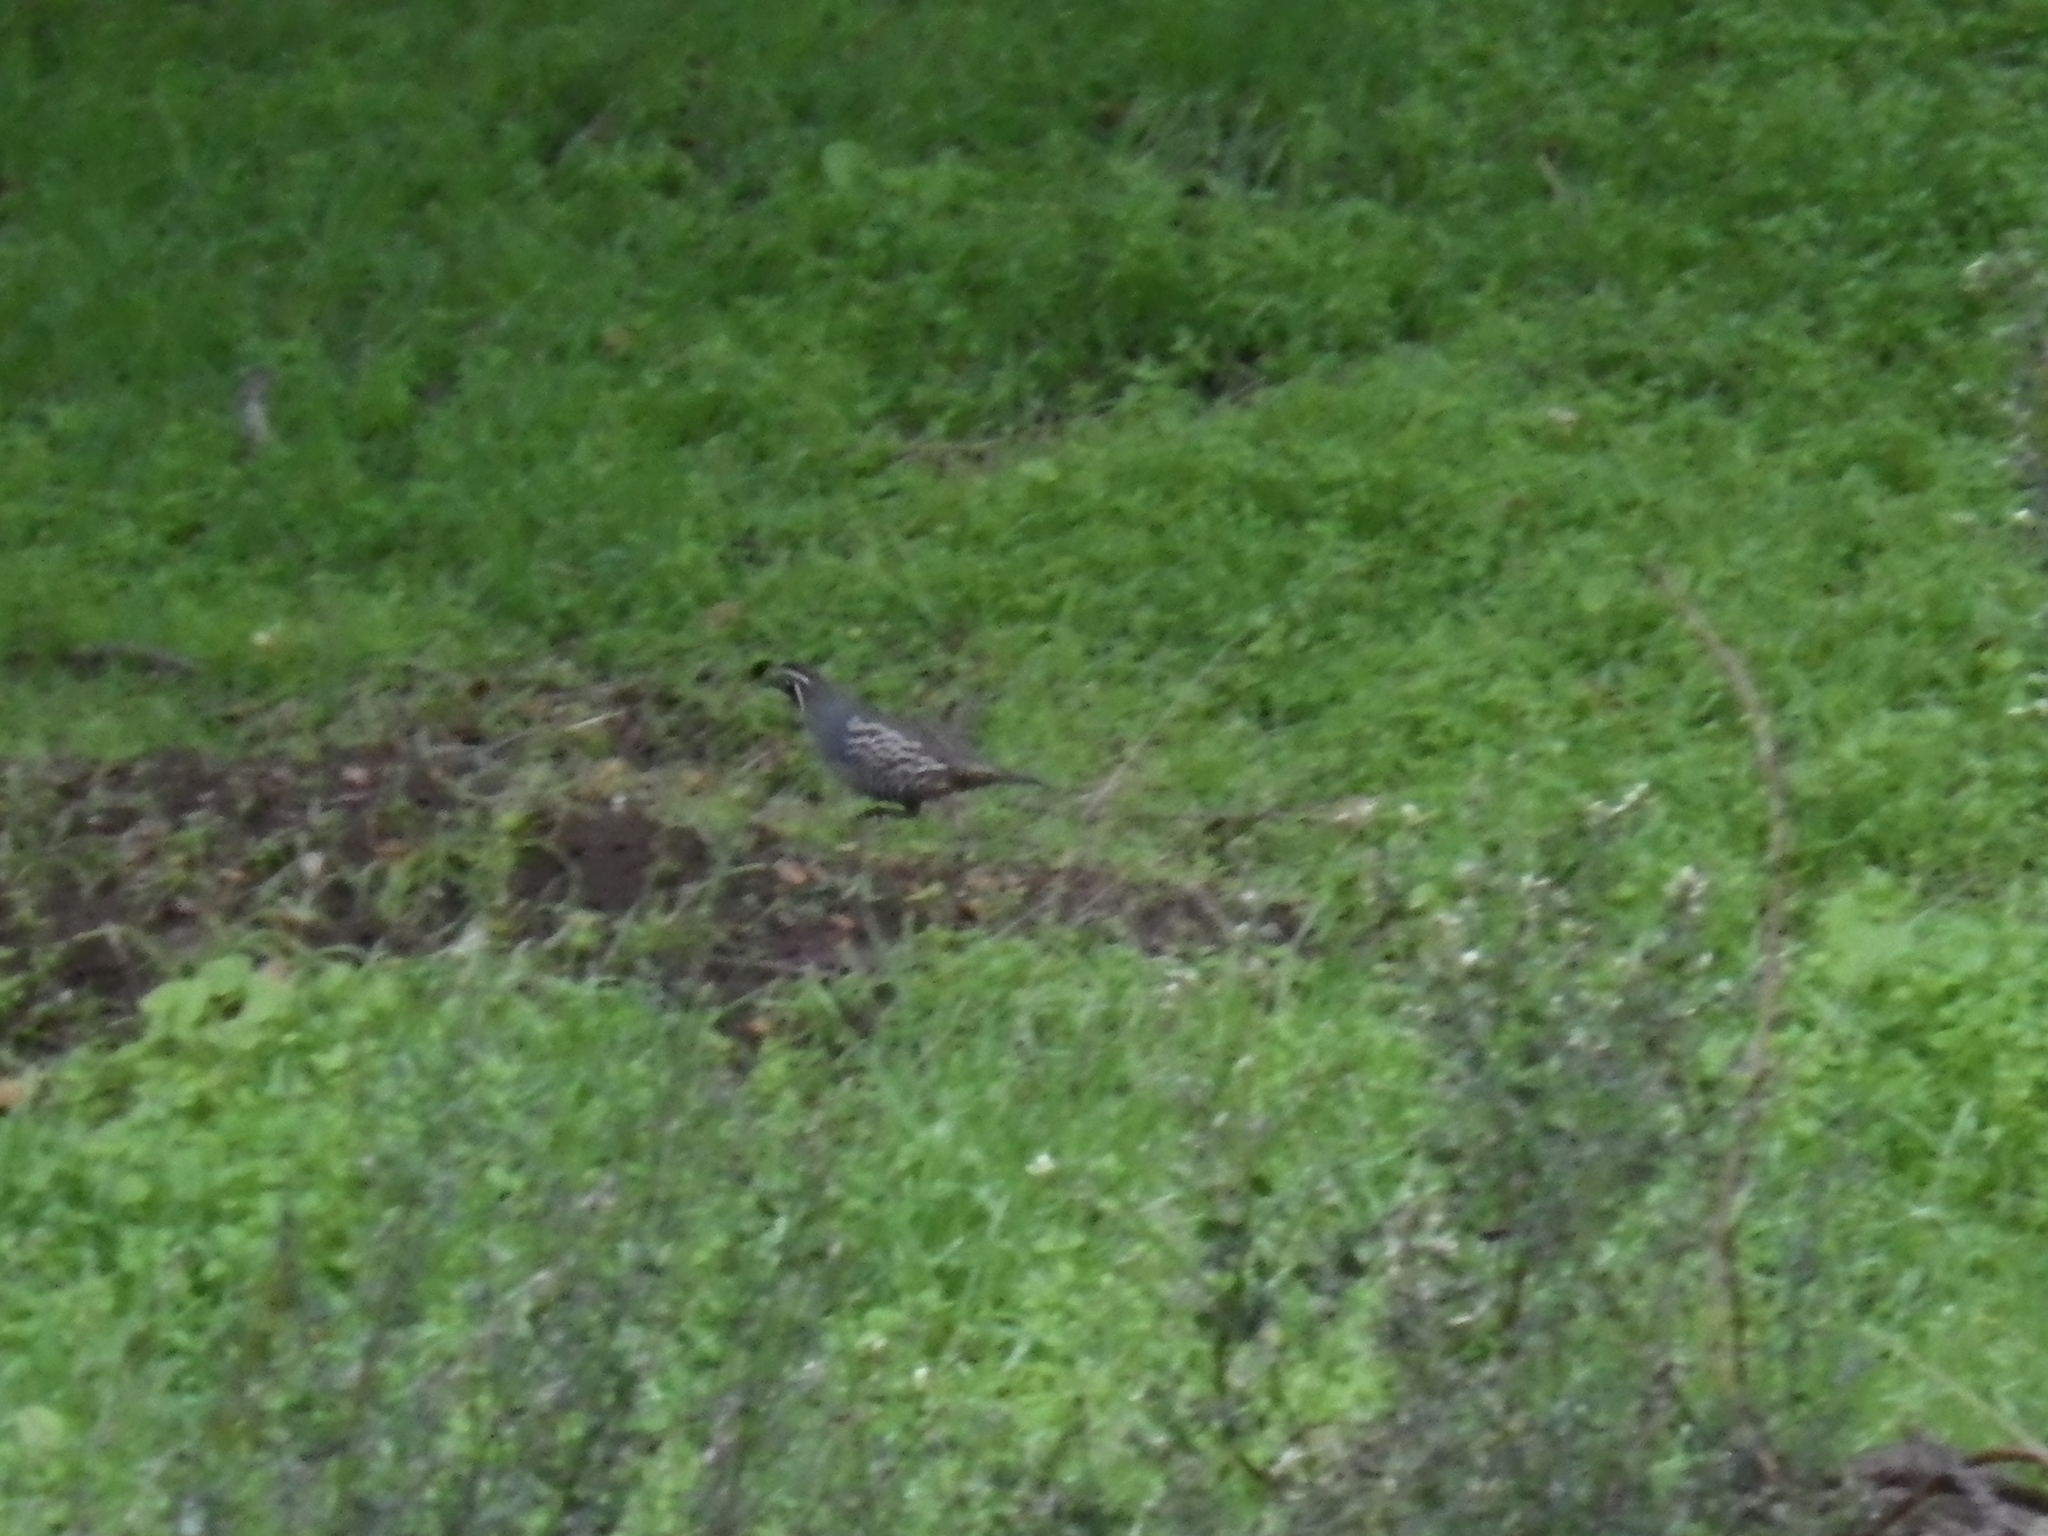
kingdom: Animalia
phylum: Chordata
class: Aves
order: Galliformes
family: Odontophoridae
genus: Callipepla
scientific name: Callipepla californica
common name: California quail
